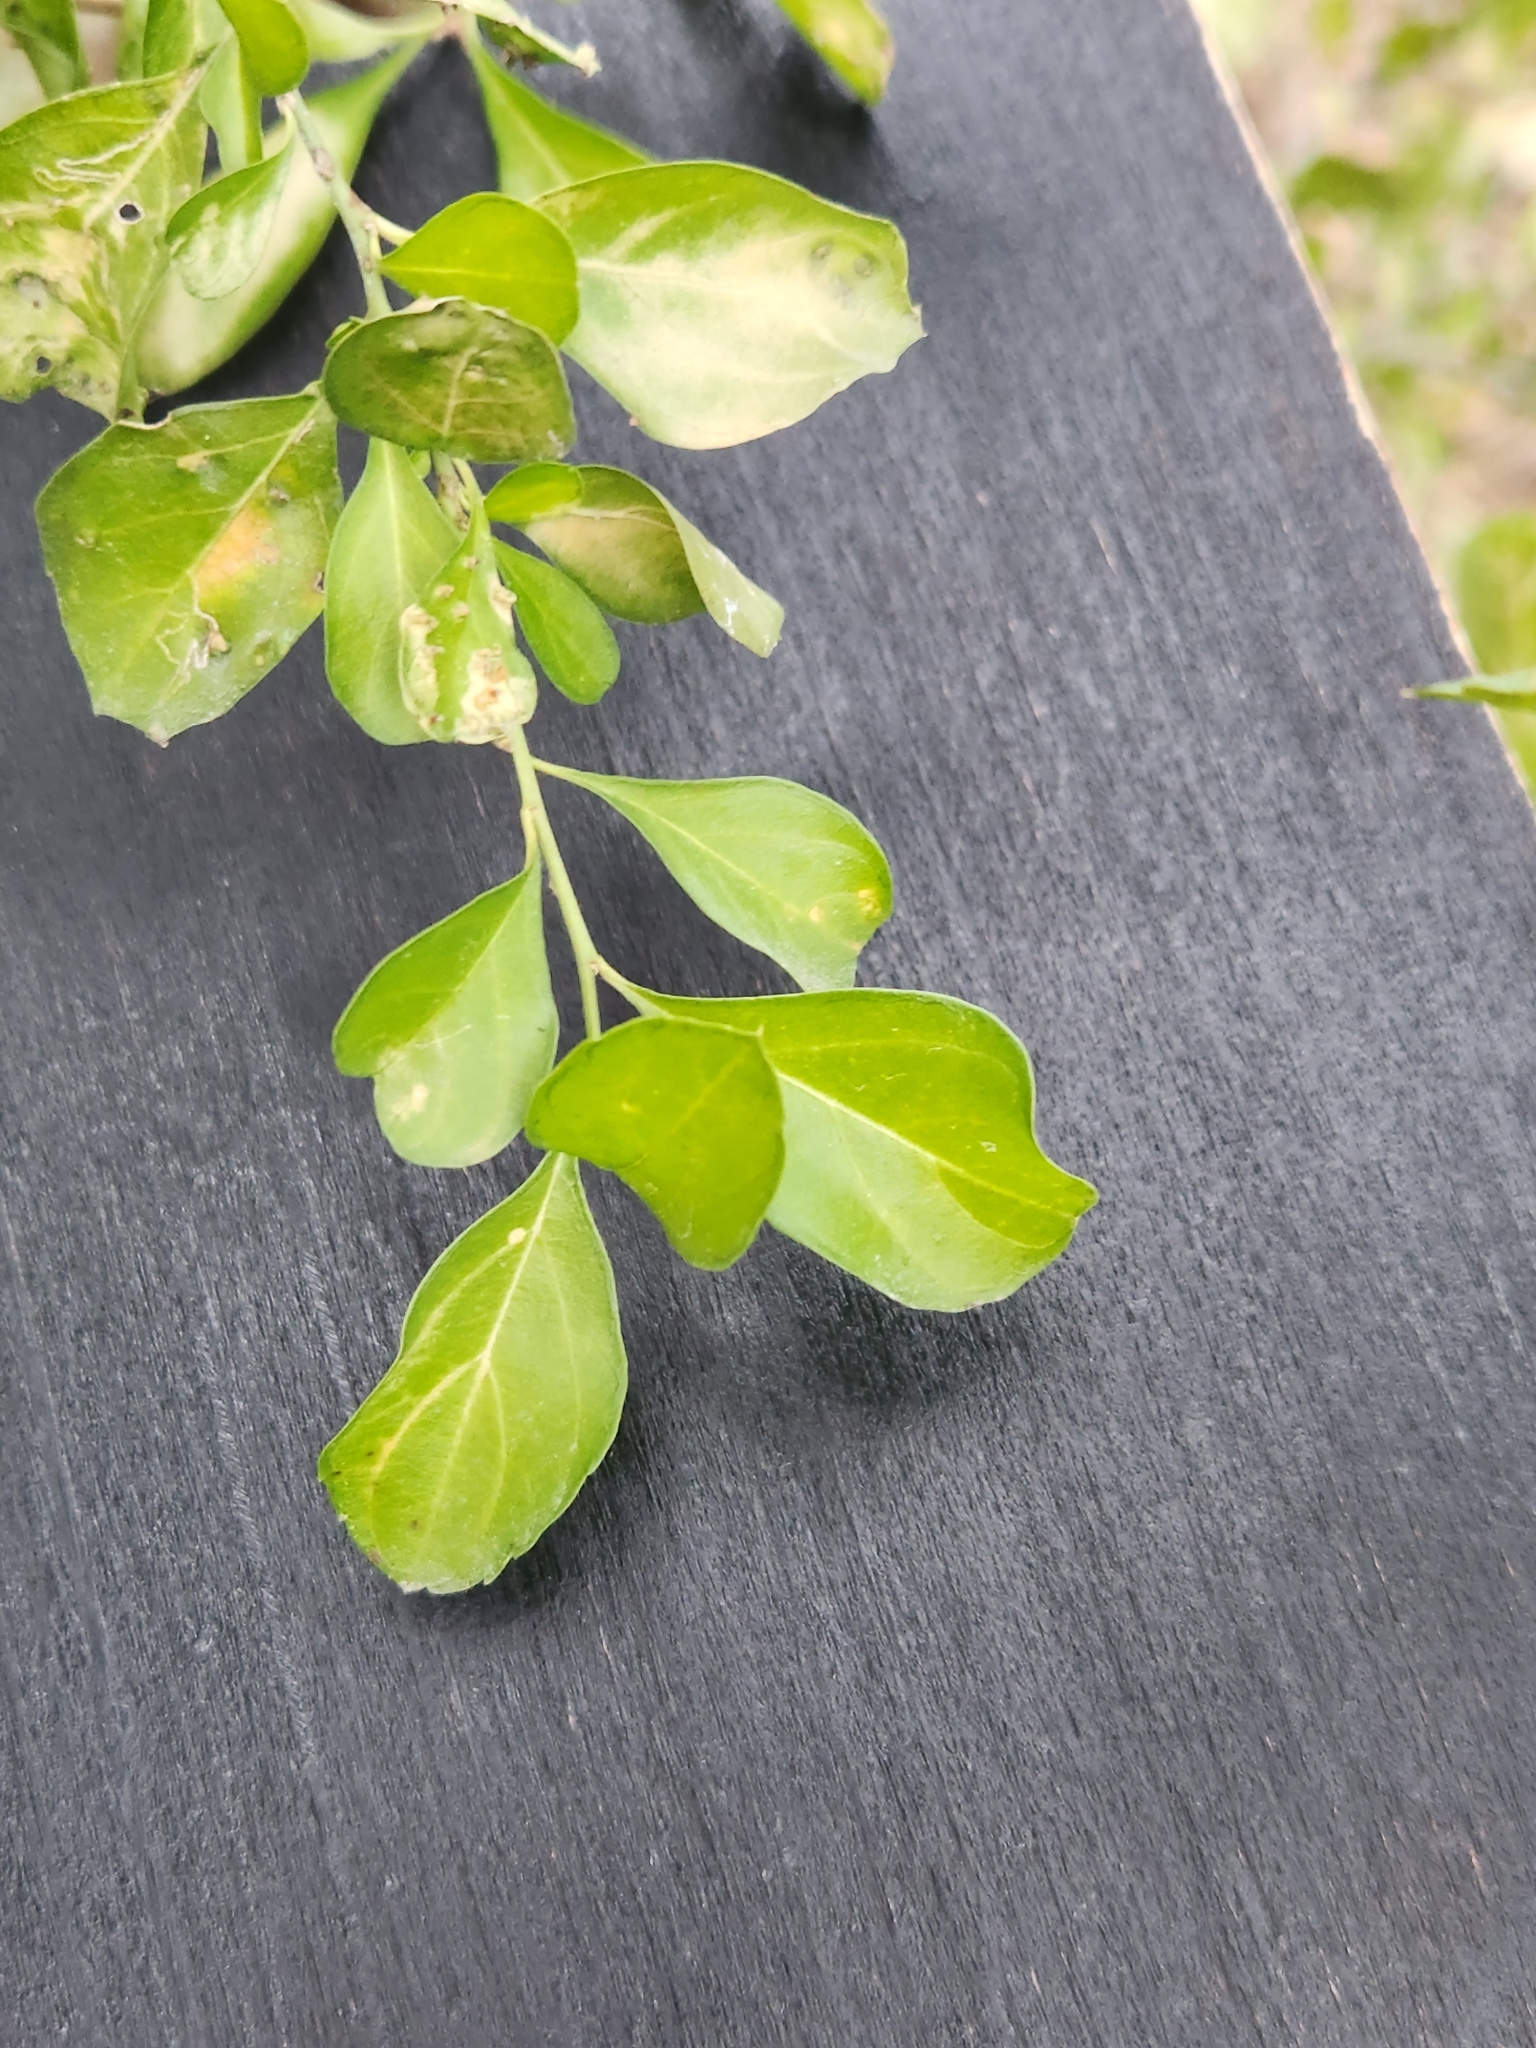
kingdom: Plantae
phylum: Tracheophyta
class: Magnoliopsida
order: Rosales
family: Rhamnaceae
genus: Condalia
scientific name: Condalia hookeri
